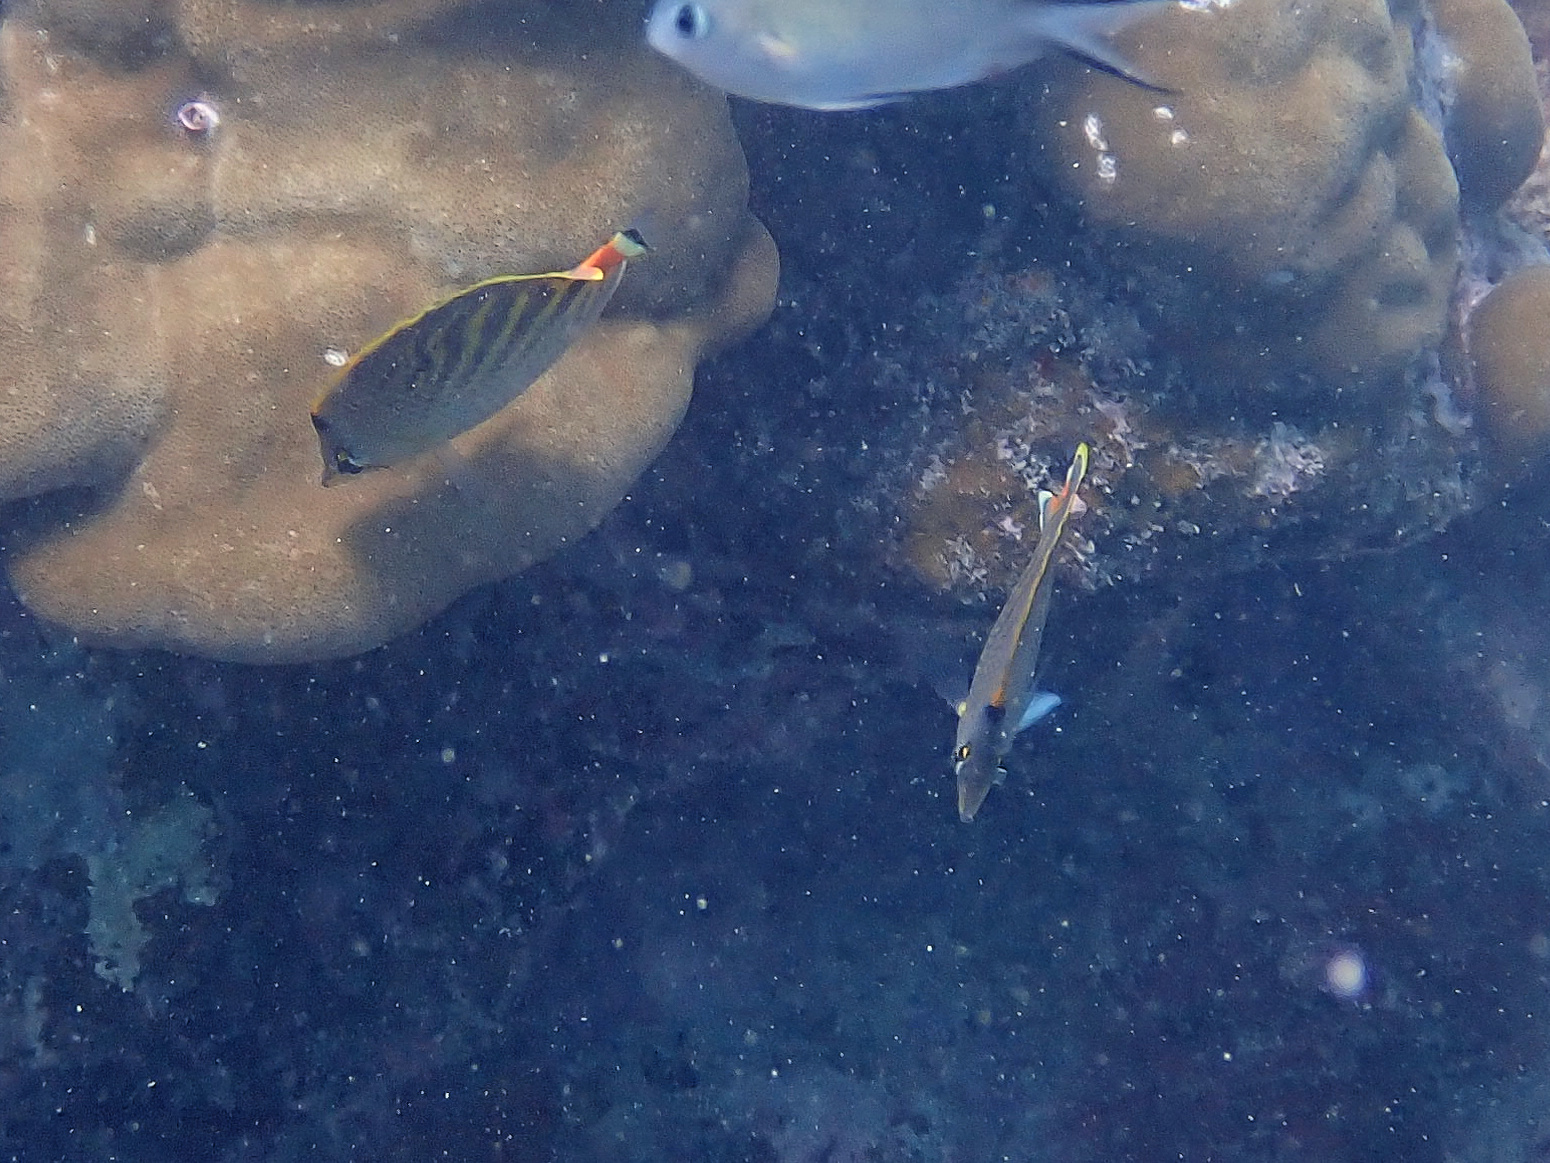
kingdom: Animalia
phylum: Chordata
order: Perciformes
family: Chaetodontidae
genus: Chaetodon
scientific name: Chaetodon pelewensis
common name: Dot-and-dash butterflyfish
